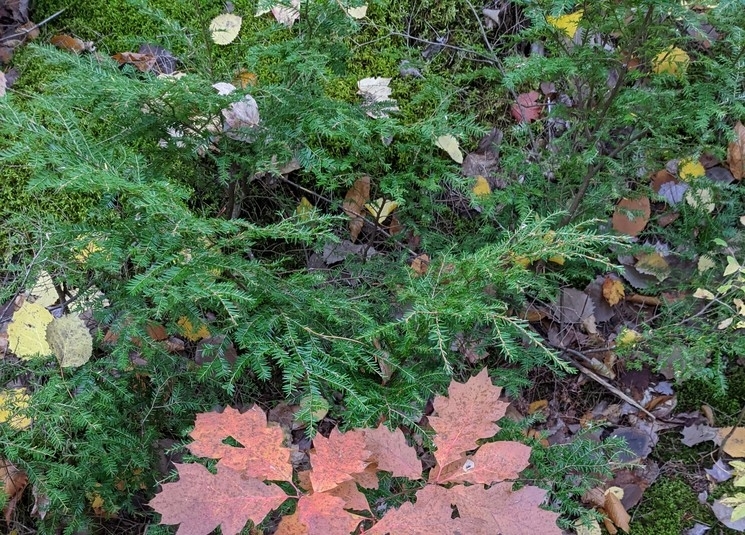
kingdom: Plantae
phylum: Tracheophyta
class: Pinopsida
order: Pinales
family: Pinaceae
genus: Tsuga
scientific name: Tsuga canadensis
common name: Eastern hemlock
